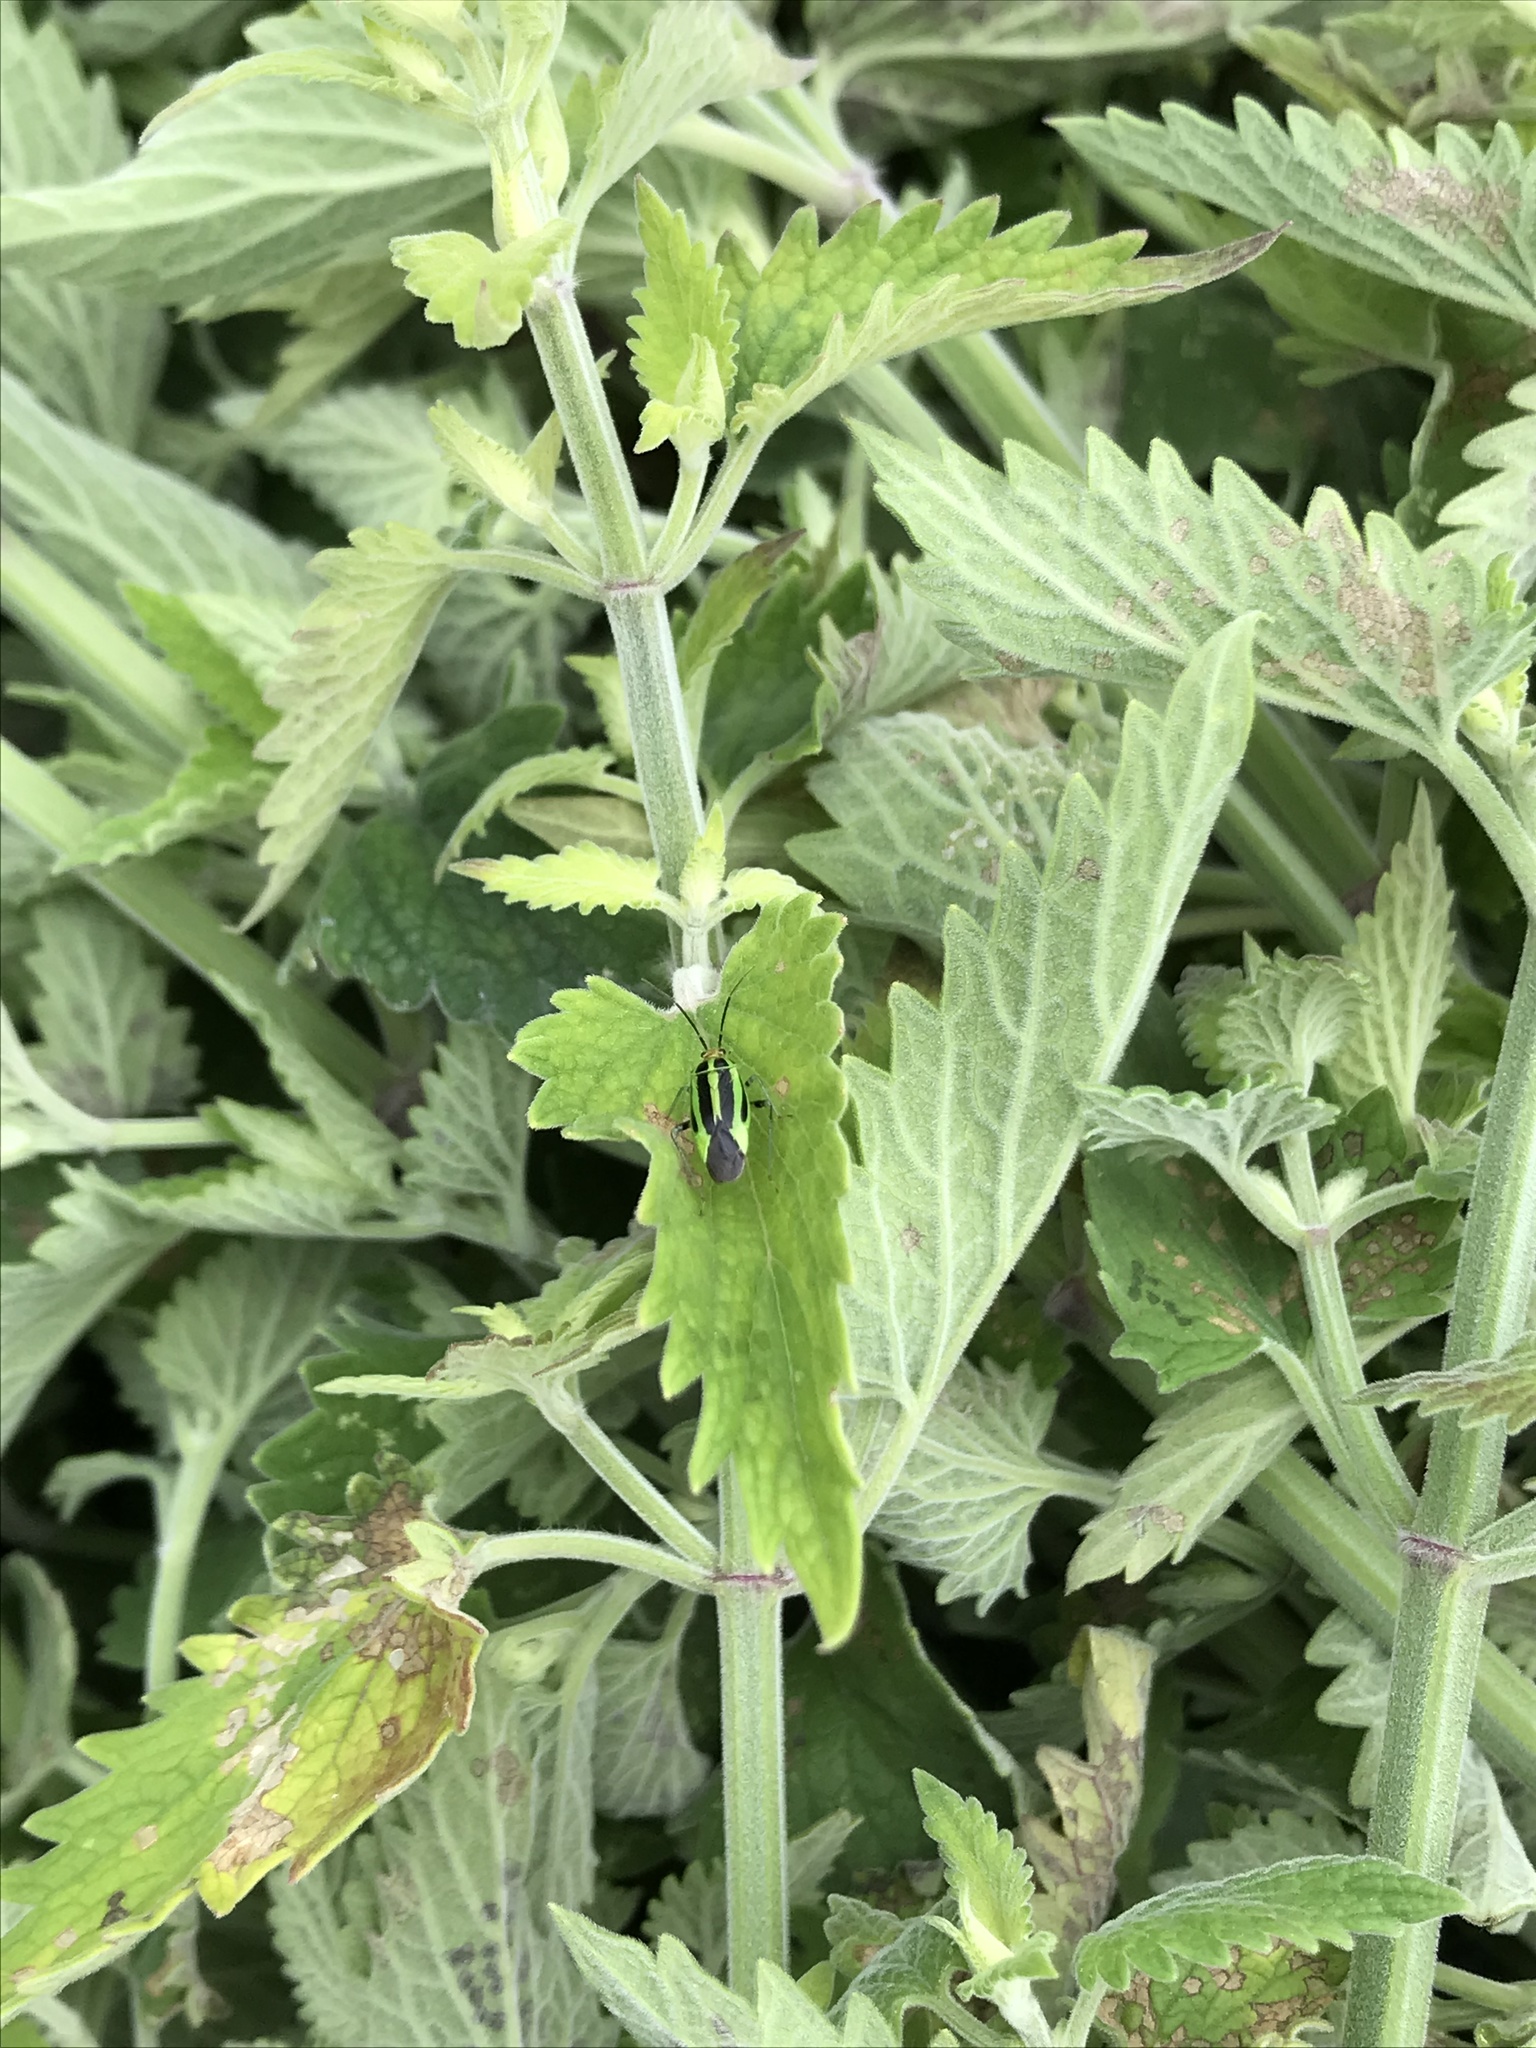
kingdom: Animalia
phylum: Arthropoda
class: Insecta
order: Hemiptera
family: Miridae
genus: Poecilocapsus
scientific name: Poecilocapsus lineatus
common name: Four-lined plant bug
